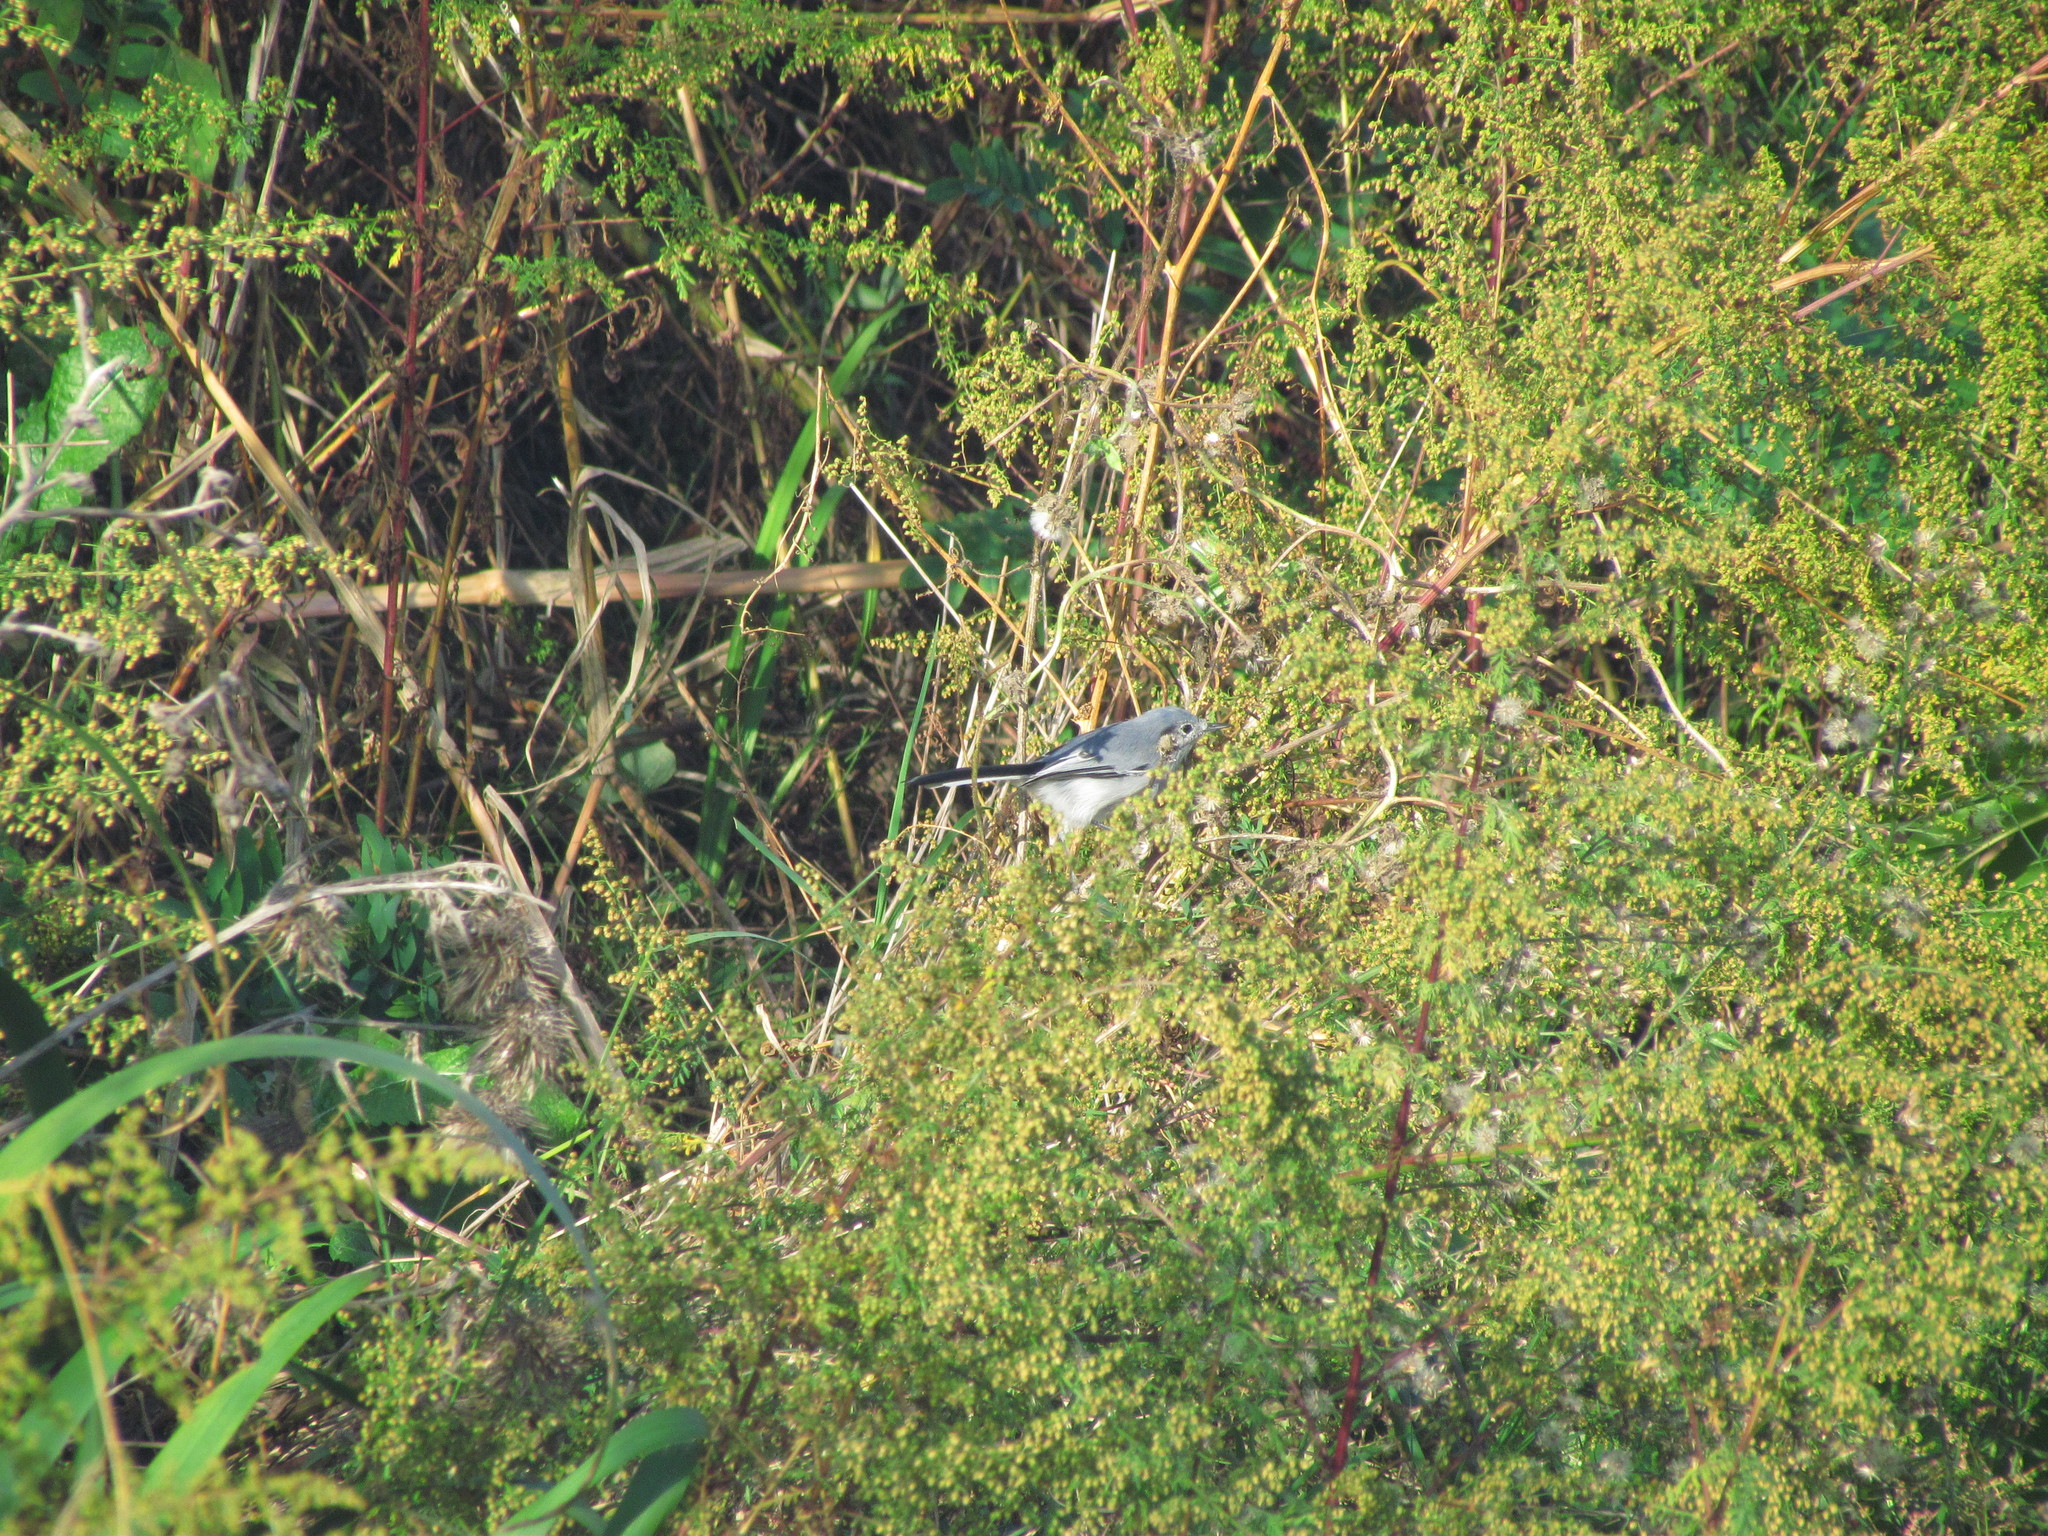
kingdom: Animalia
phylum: Chordata
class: Aves
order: Passeriformes
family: Polioptilidae
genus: Polioptila
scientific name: Polioptila dumicola
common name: Masked gnatcatcher
